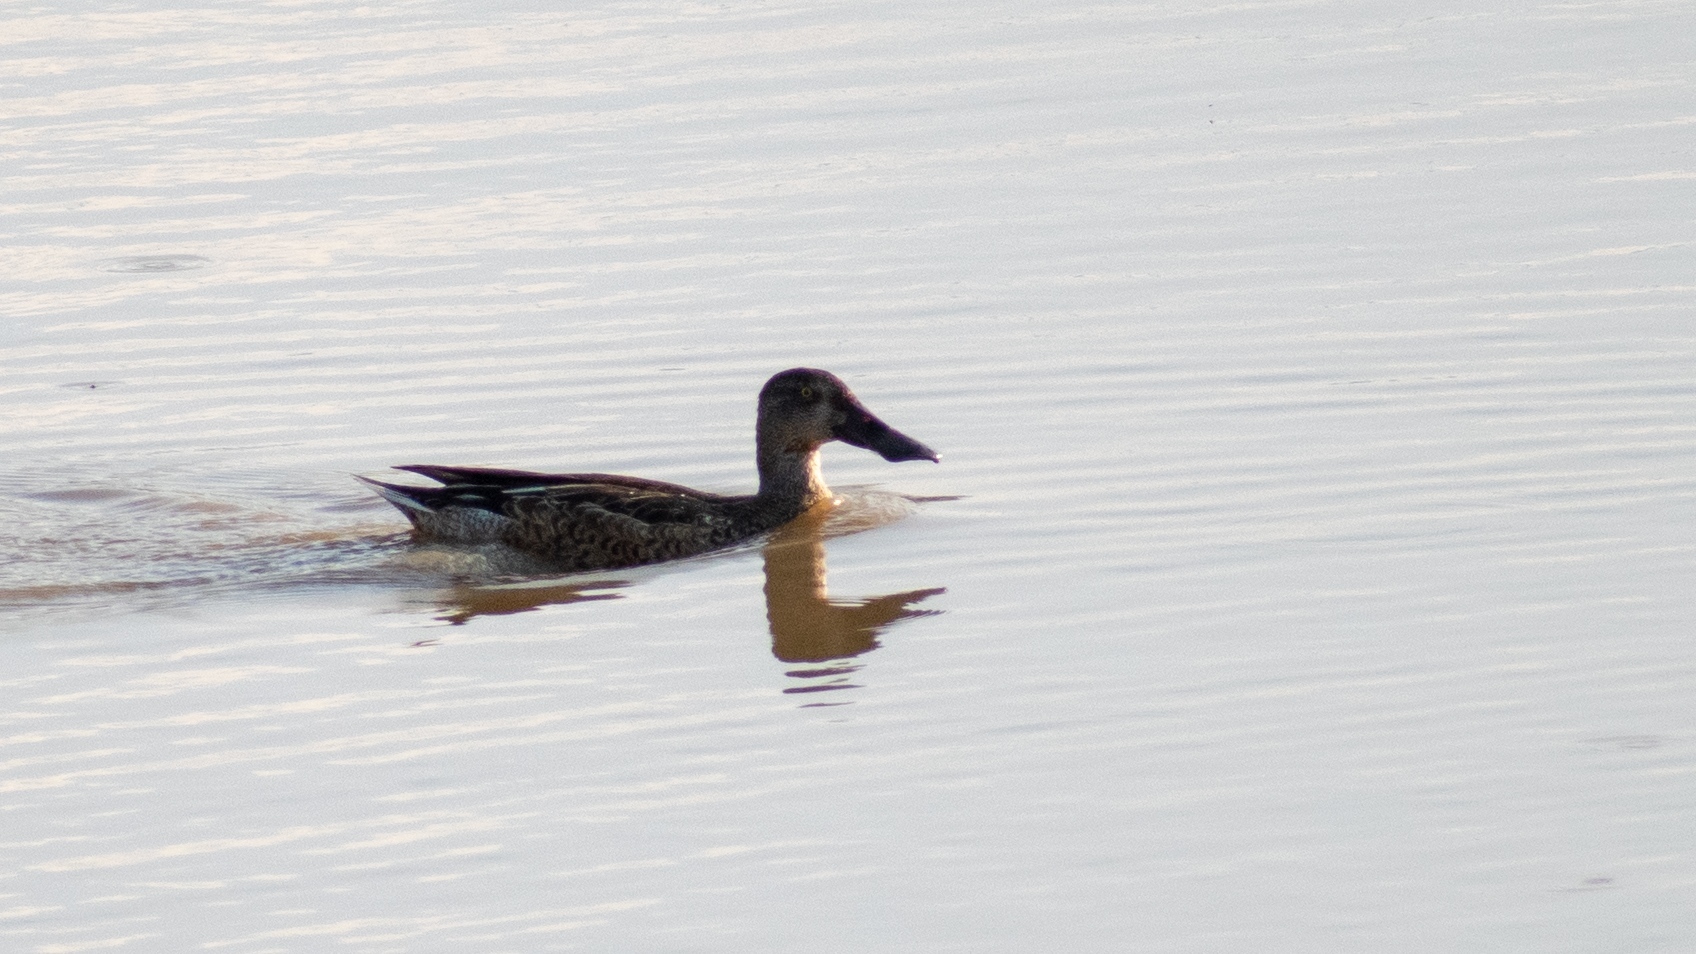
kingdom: Animalia
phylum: Chordata
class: Aves
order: Anseriformes
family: Anatidae
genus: Spatula
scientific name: Spatula clypeata
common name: Northern shoveler
